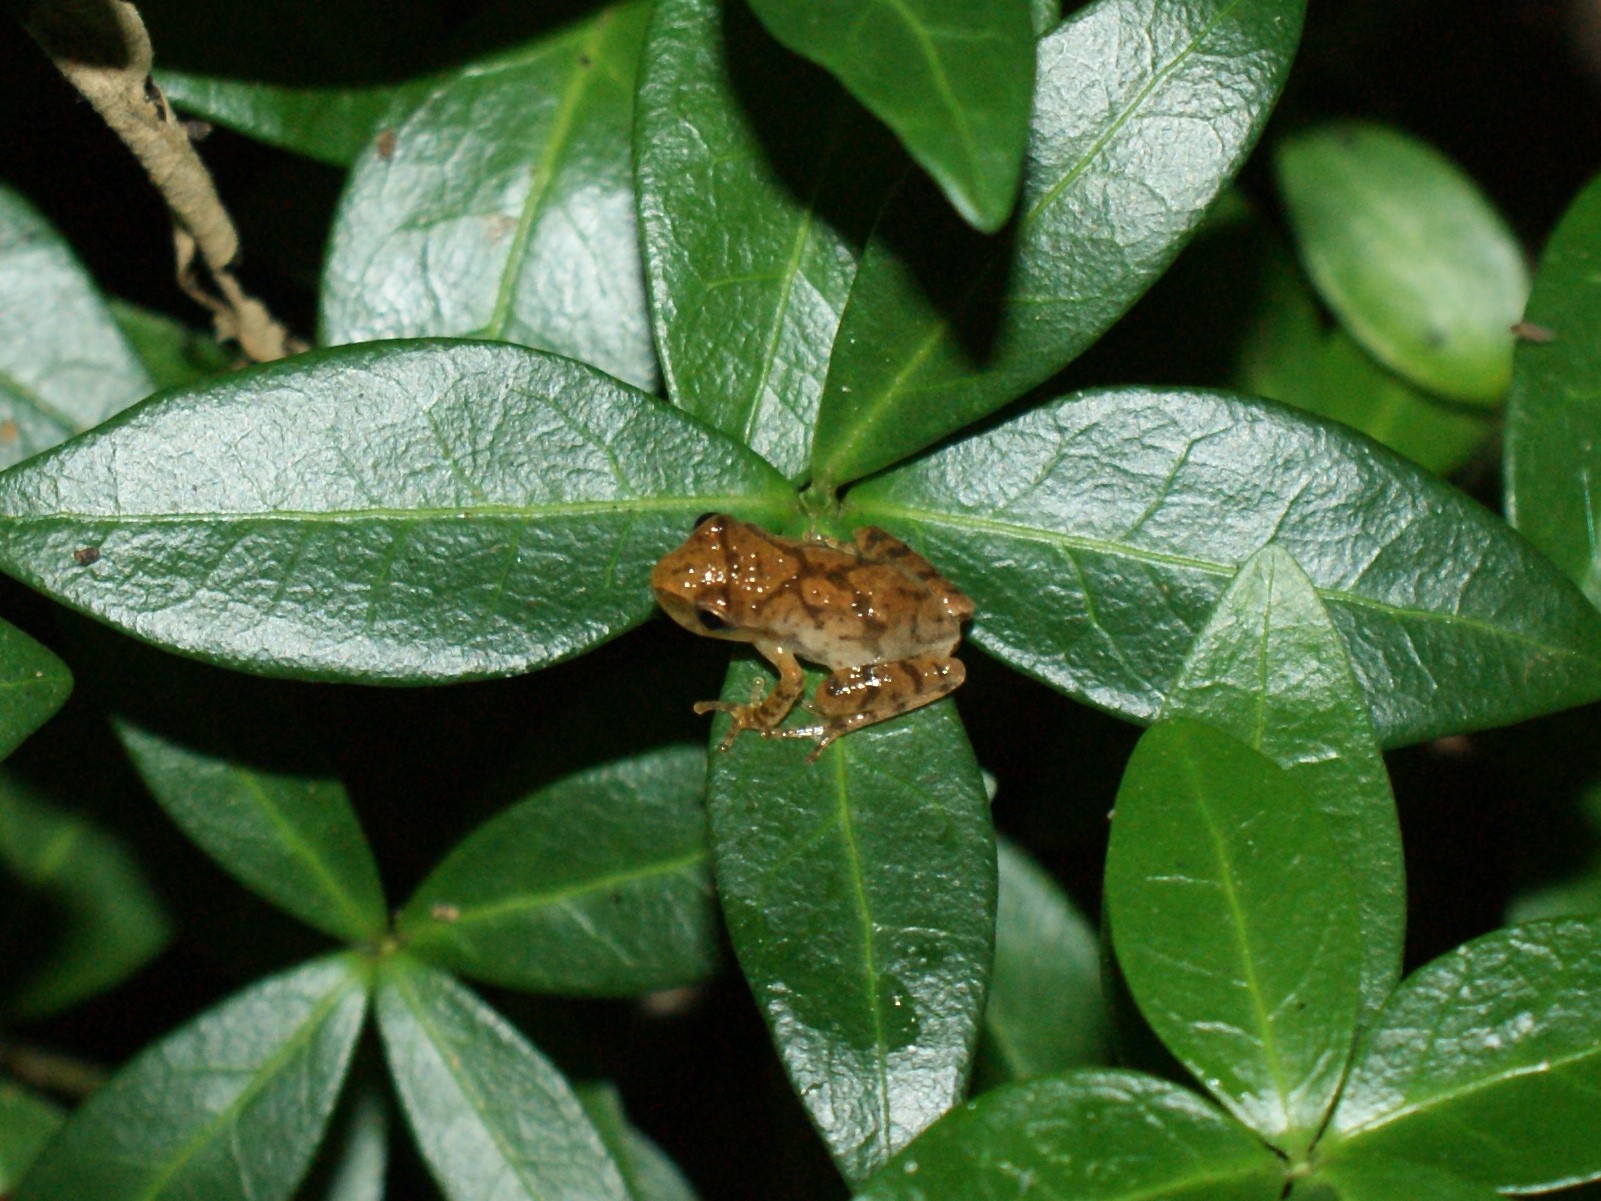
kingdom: Animalia
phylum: Chordata
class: Amphibia
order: Anura
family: Hylidae
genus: Pseudacris
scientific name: Pseudacris crucifer
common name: Spring peeper
